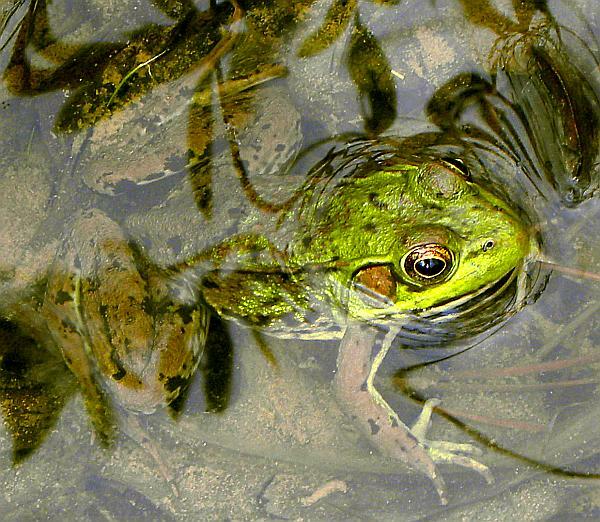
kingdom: Animalia
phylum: Chordata
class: Amphibia
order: Anura
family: Ranidae
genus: Lithobates
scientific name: Lithobates clamitans
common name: Green frog
